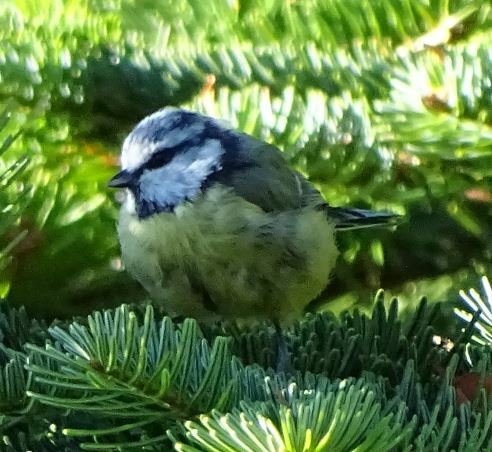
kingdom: Animalia
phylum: Chordata
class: Aves
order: Passeriformes
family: Paridae
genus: Cyanistes
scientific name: Cyanistes caeruleus
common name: Eurasian blue tit
